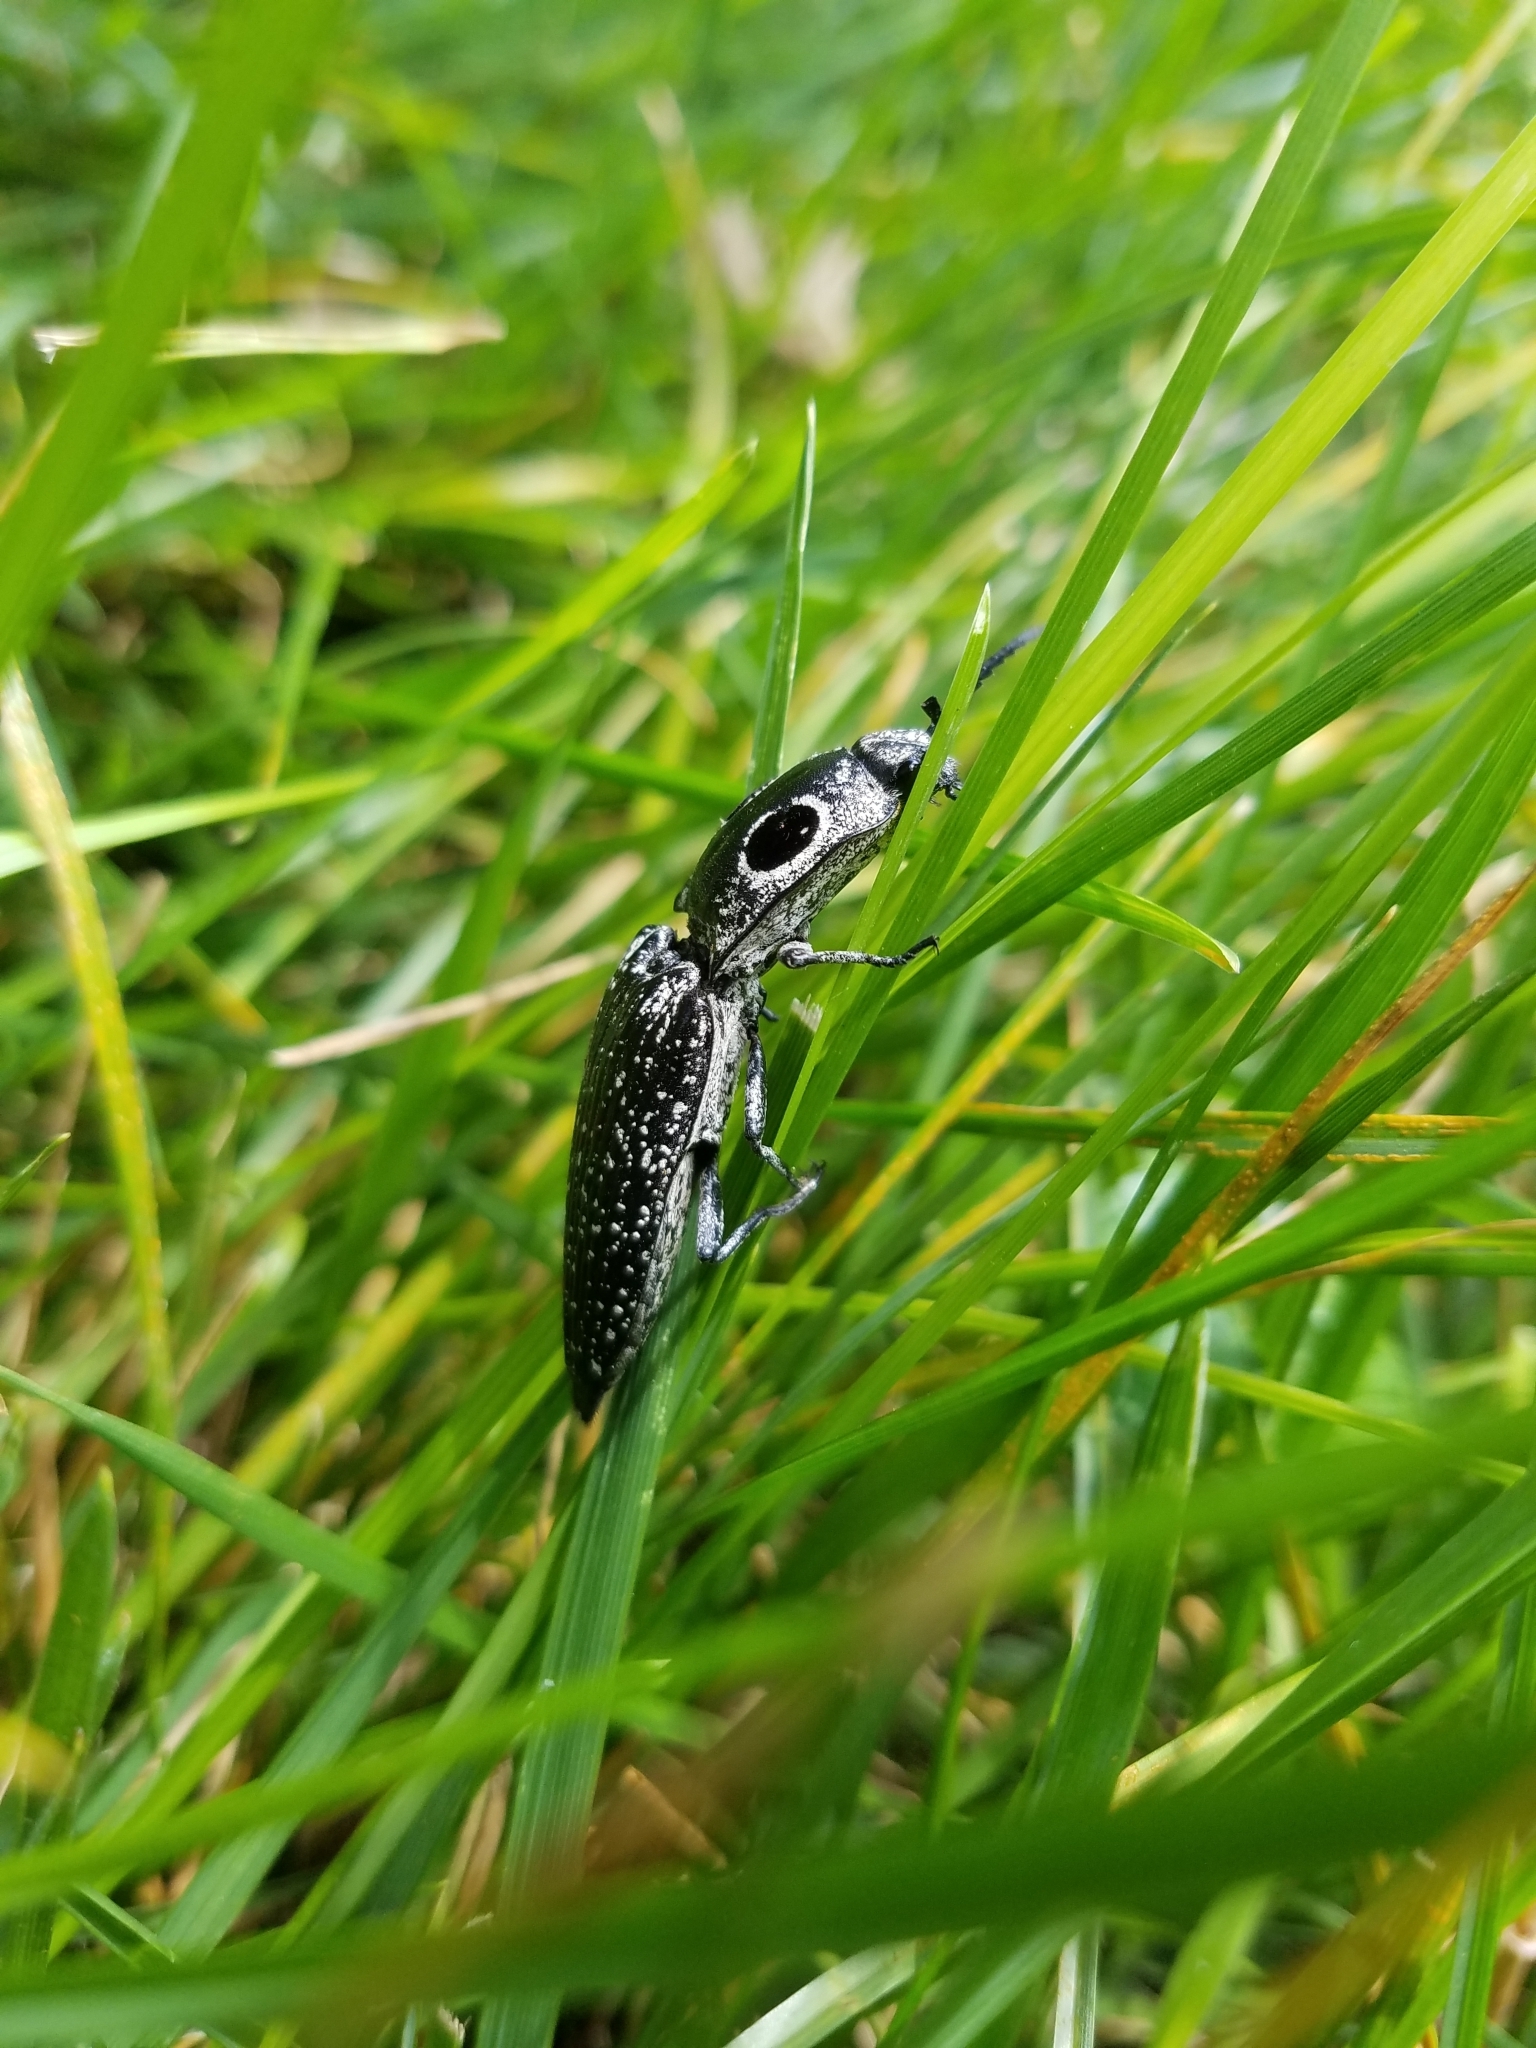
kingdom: Animalia
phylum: Arthropoda
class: Insecta
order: Coleoptera
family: Elateridae
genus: Alaus
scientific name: Alaus oculatus
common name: Eastern eyed click beetle
